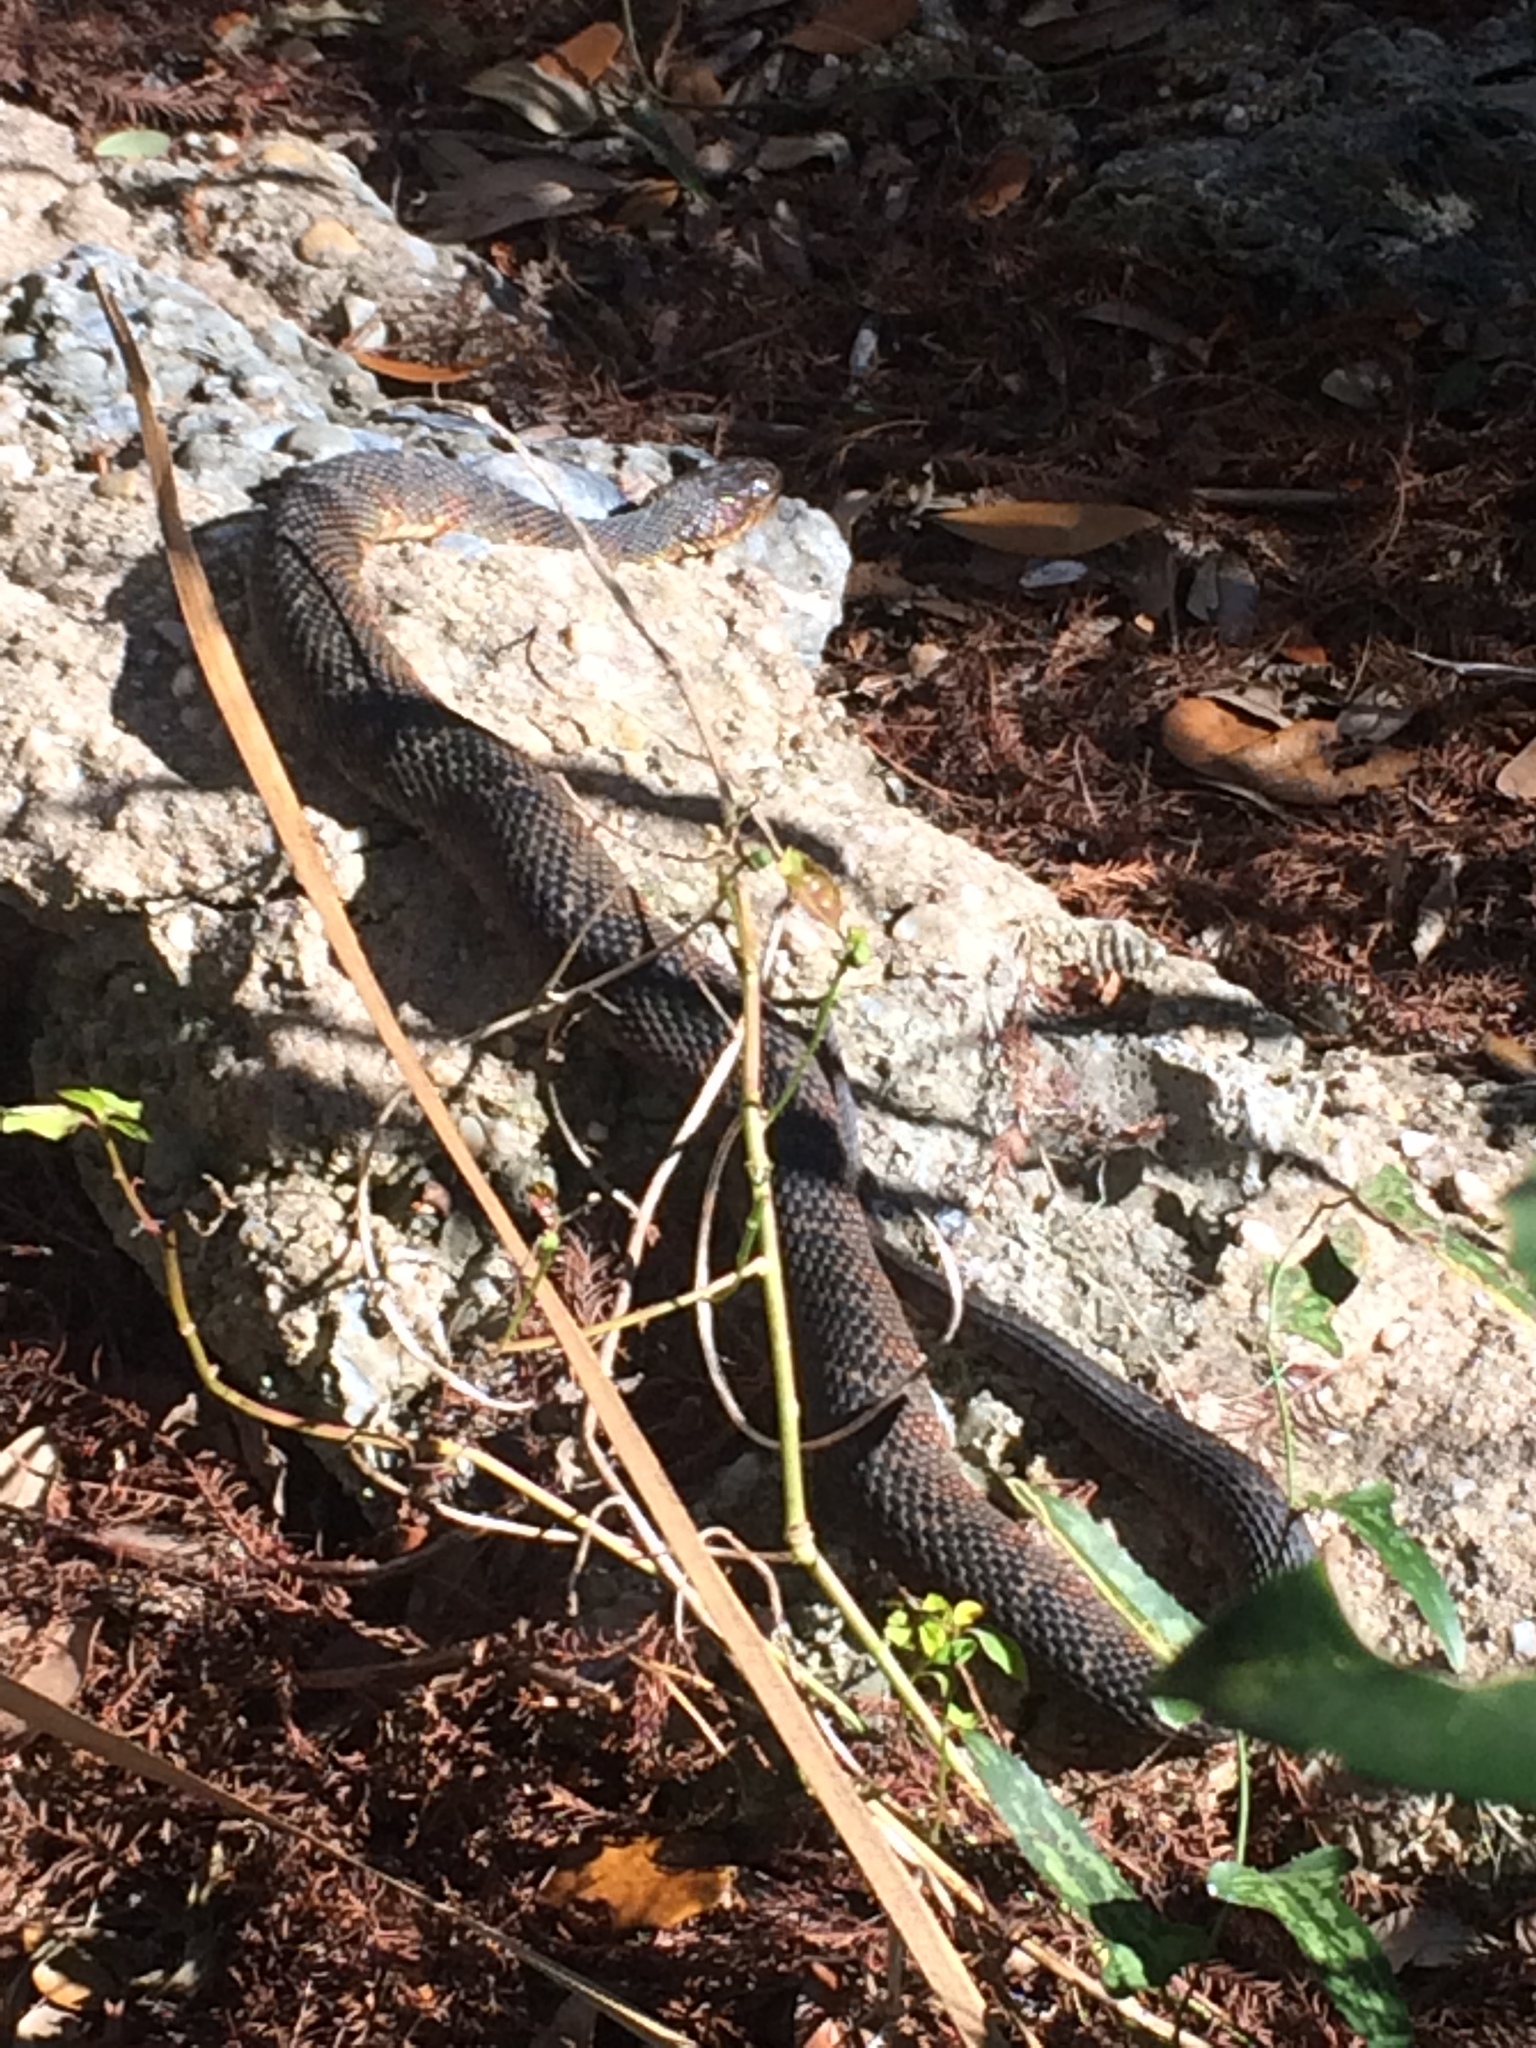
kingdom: Animalia
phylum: Chordata
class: Squamata
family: Colubridae
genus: Nerodia
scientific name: Nerodia fasciata
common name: Southern water snake
